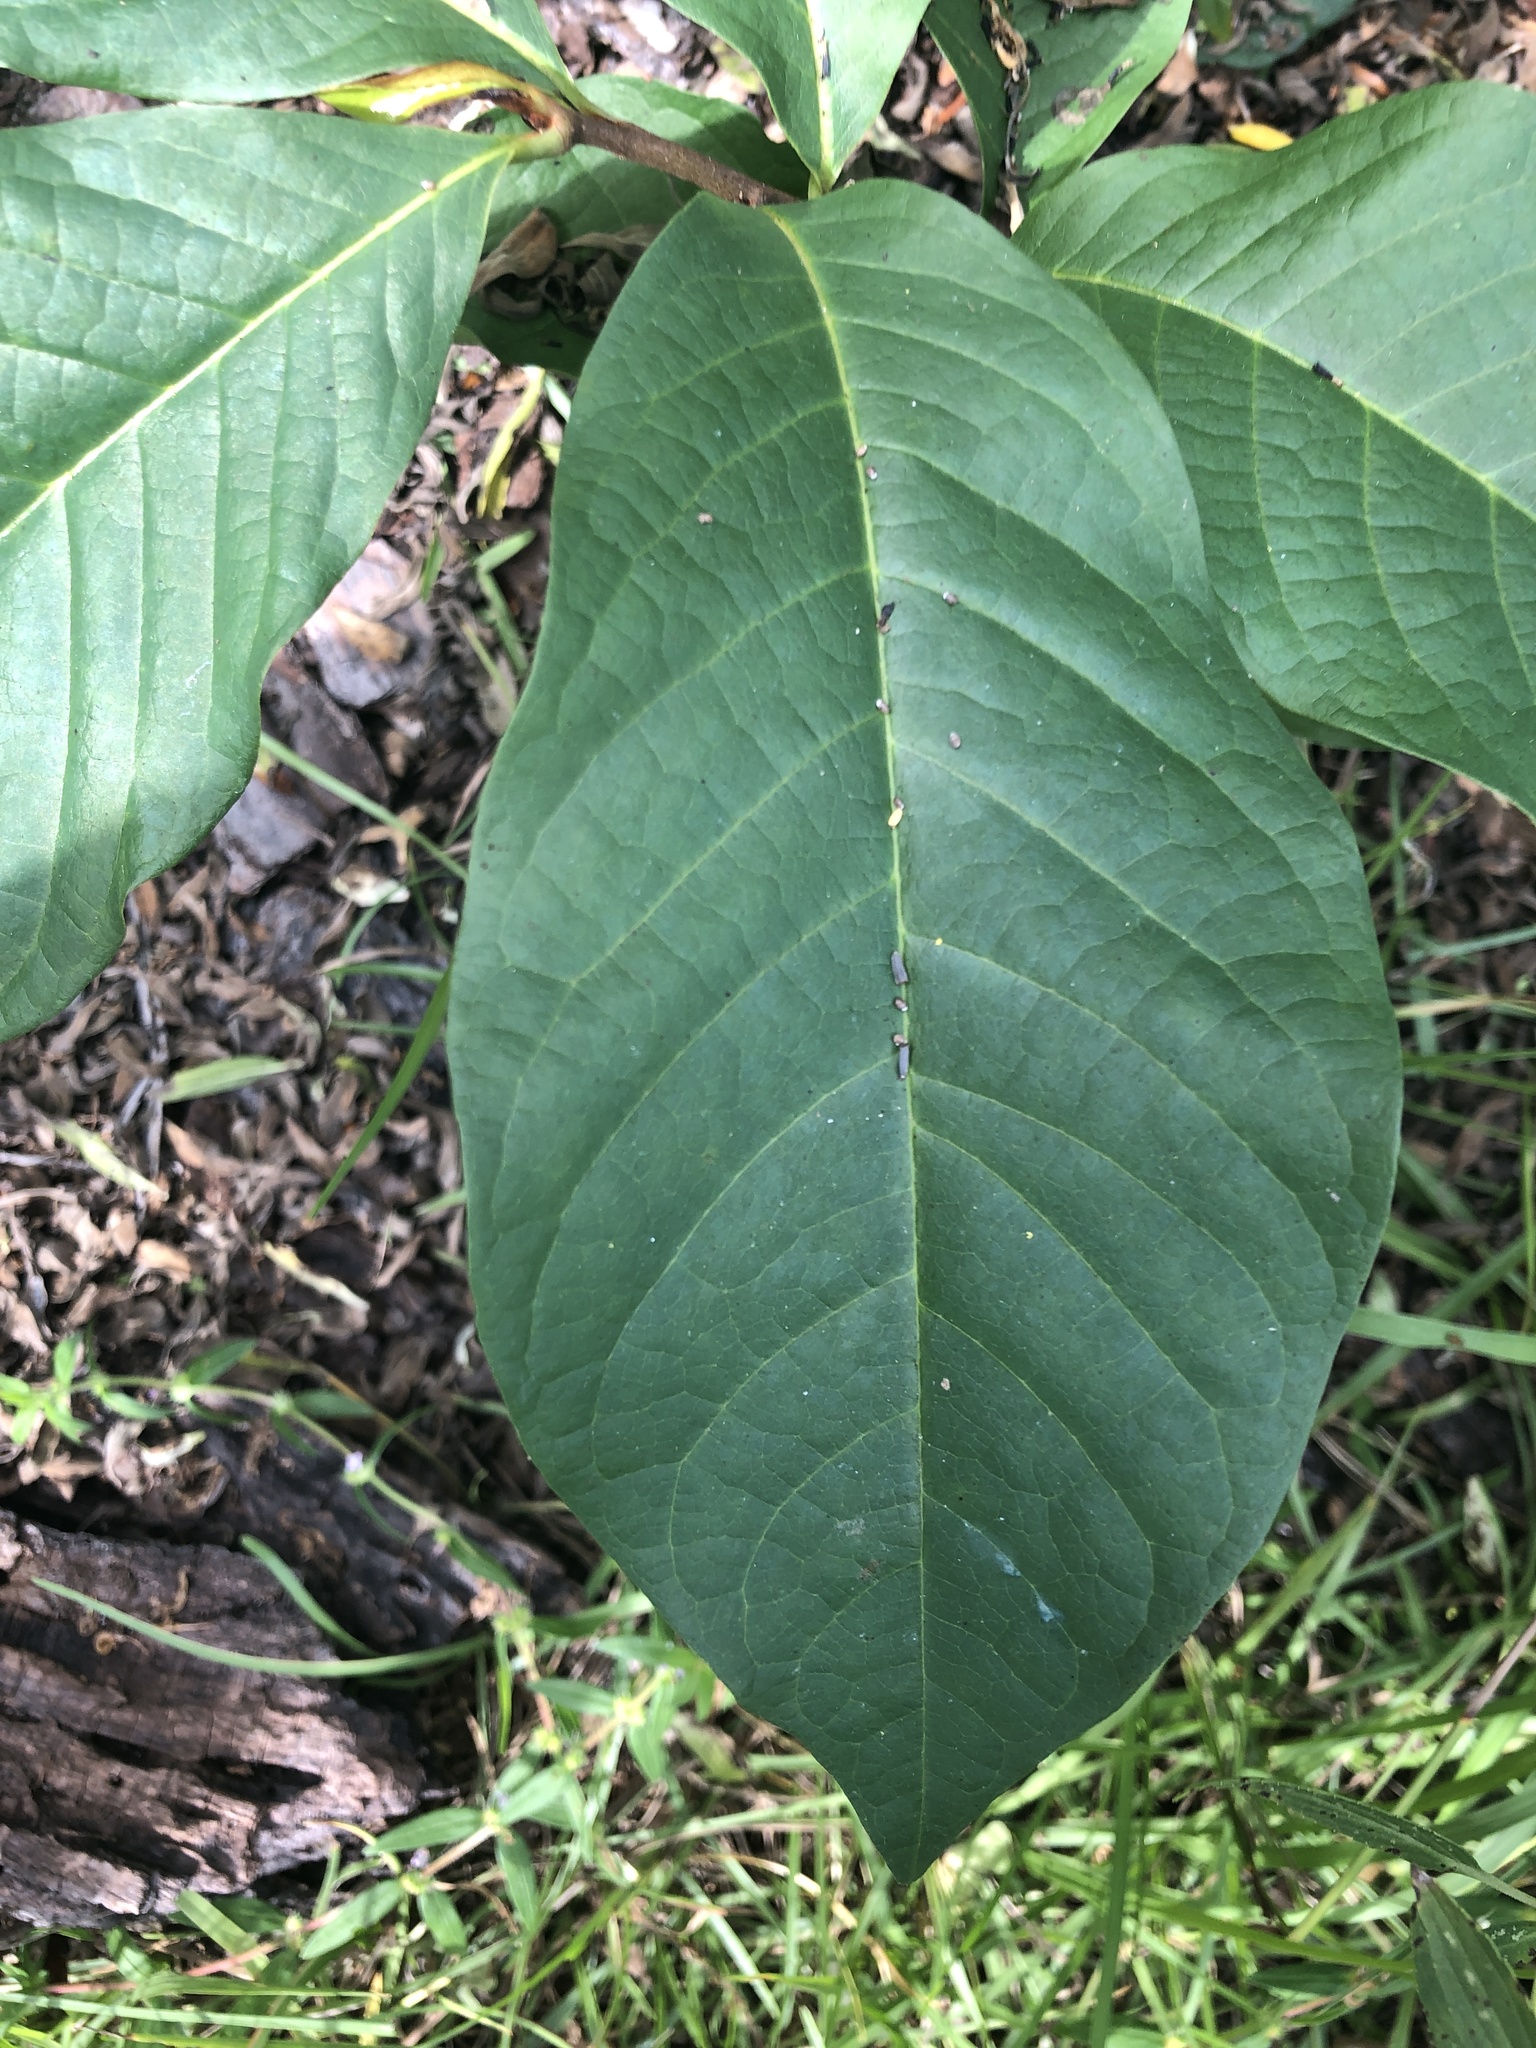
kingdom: Plantae
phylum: Tracheophyta
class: Magnoliopsida
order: Magnoliales
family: Annonaceae
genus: Asimina
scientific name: Asimina triloba
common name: Dog-banana
